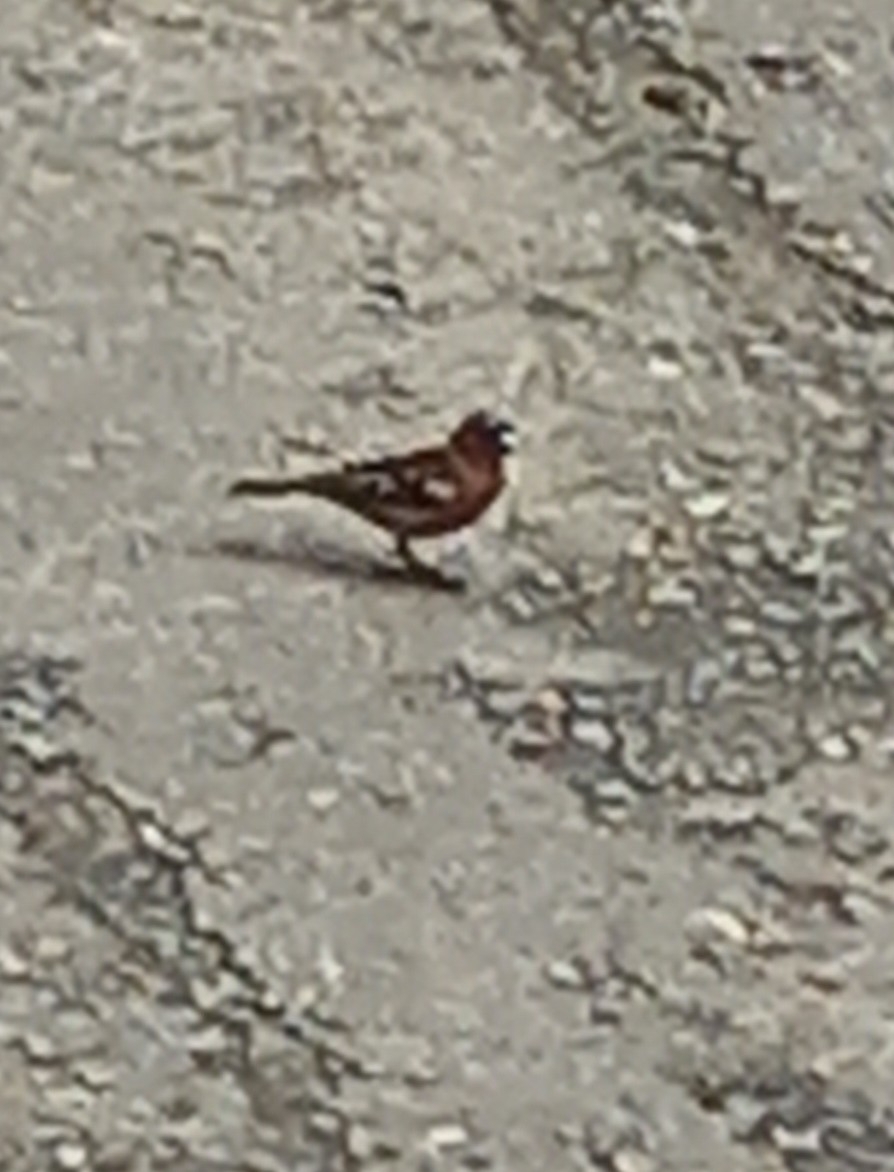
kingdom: Animalia
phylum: Chordata
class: Aves
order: Passeriformes
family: Fringillidae
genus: Fringilla
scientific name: Fringilla coelebs
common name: Common chaffinch
